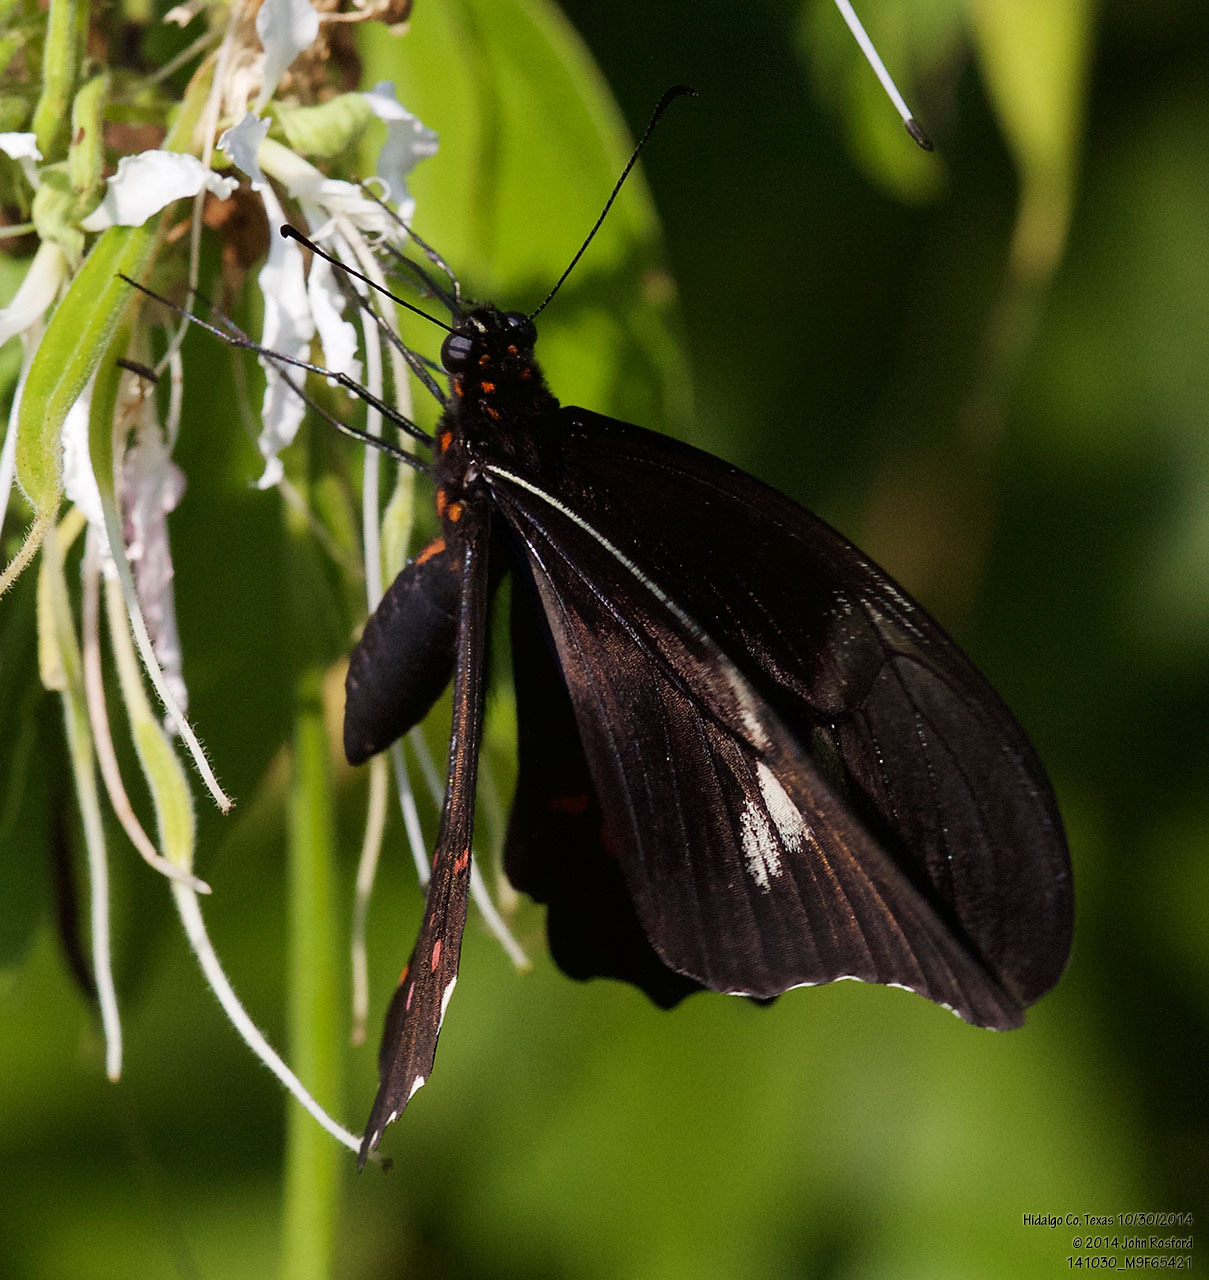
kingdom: Animalia
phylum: Arthropoda
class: Insecta
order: Lepidoptera
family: Papilionidae
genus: Papilio
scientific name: Papilio anchisiades
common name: Idaes swallowtail
